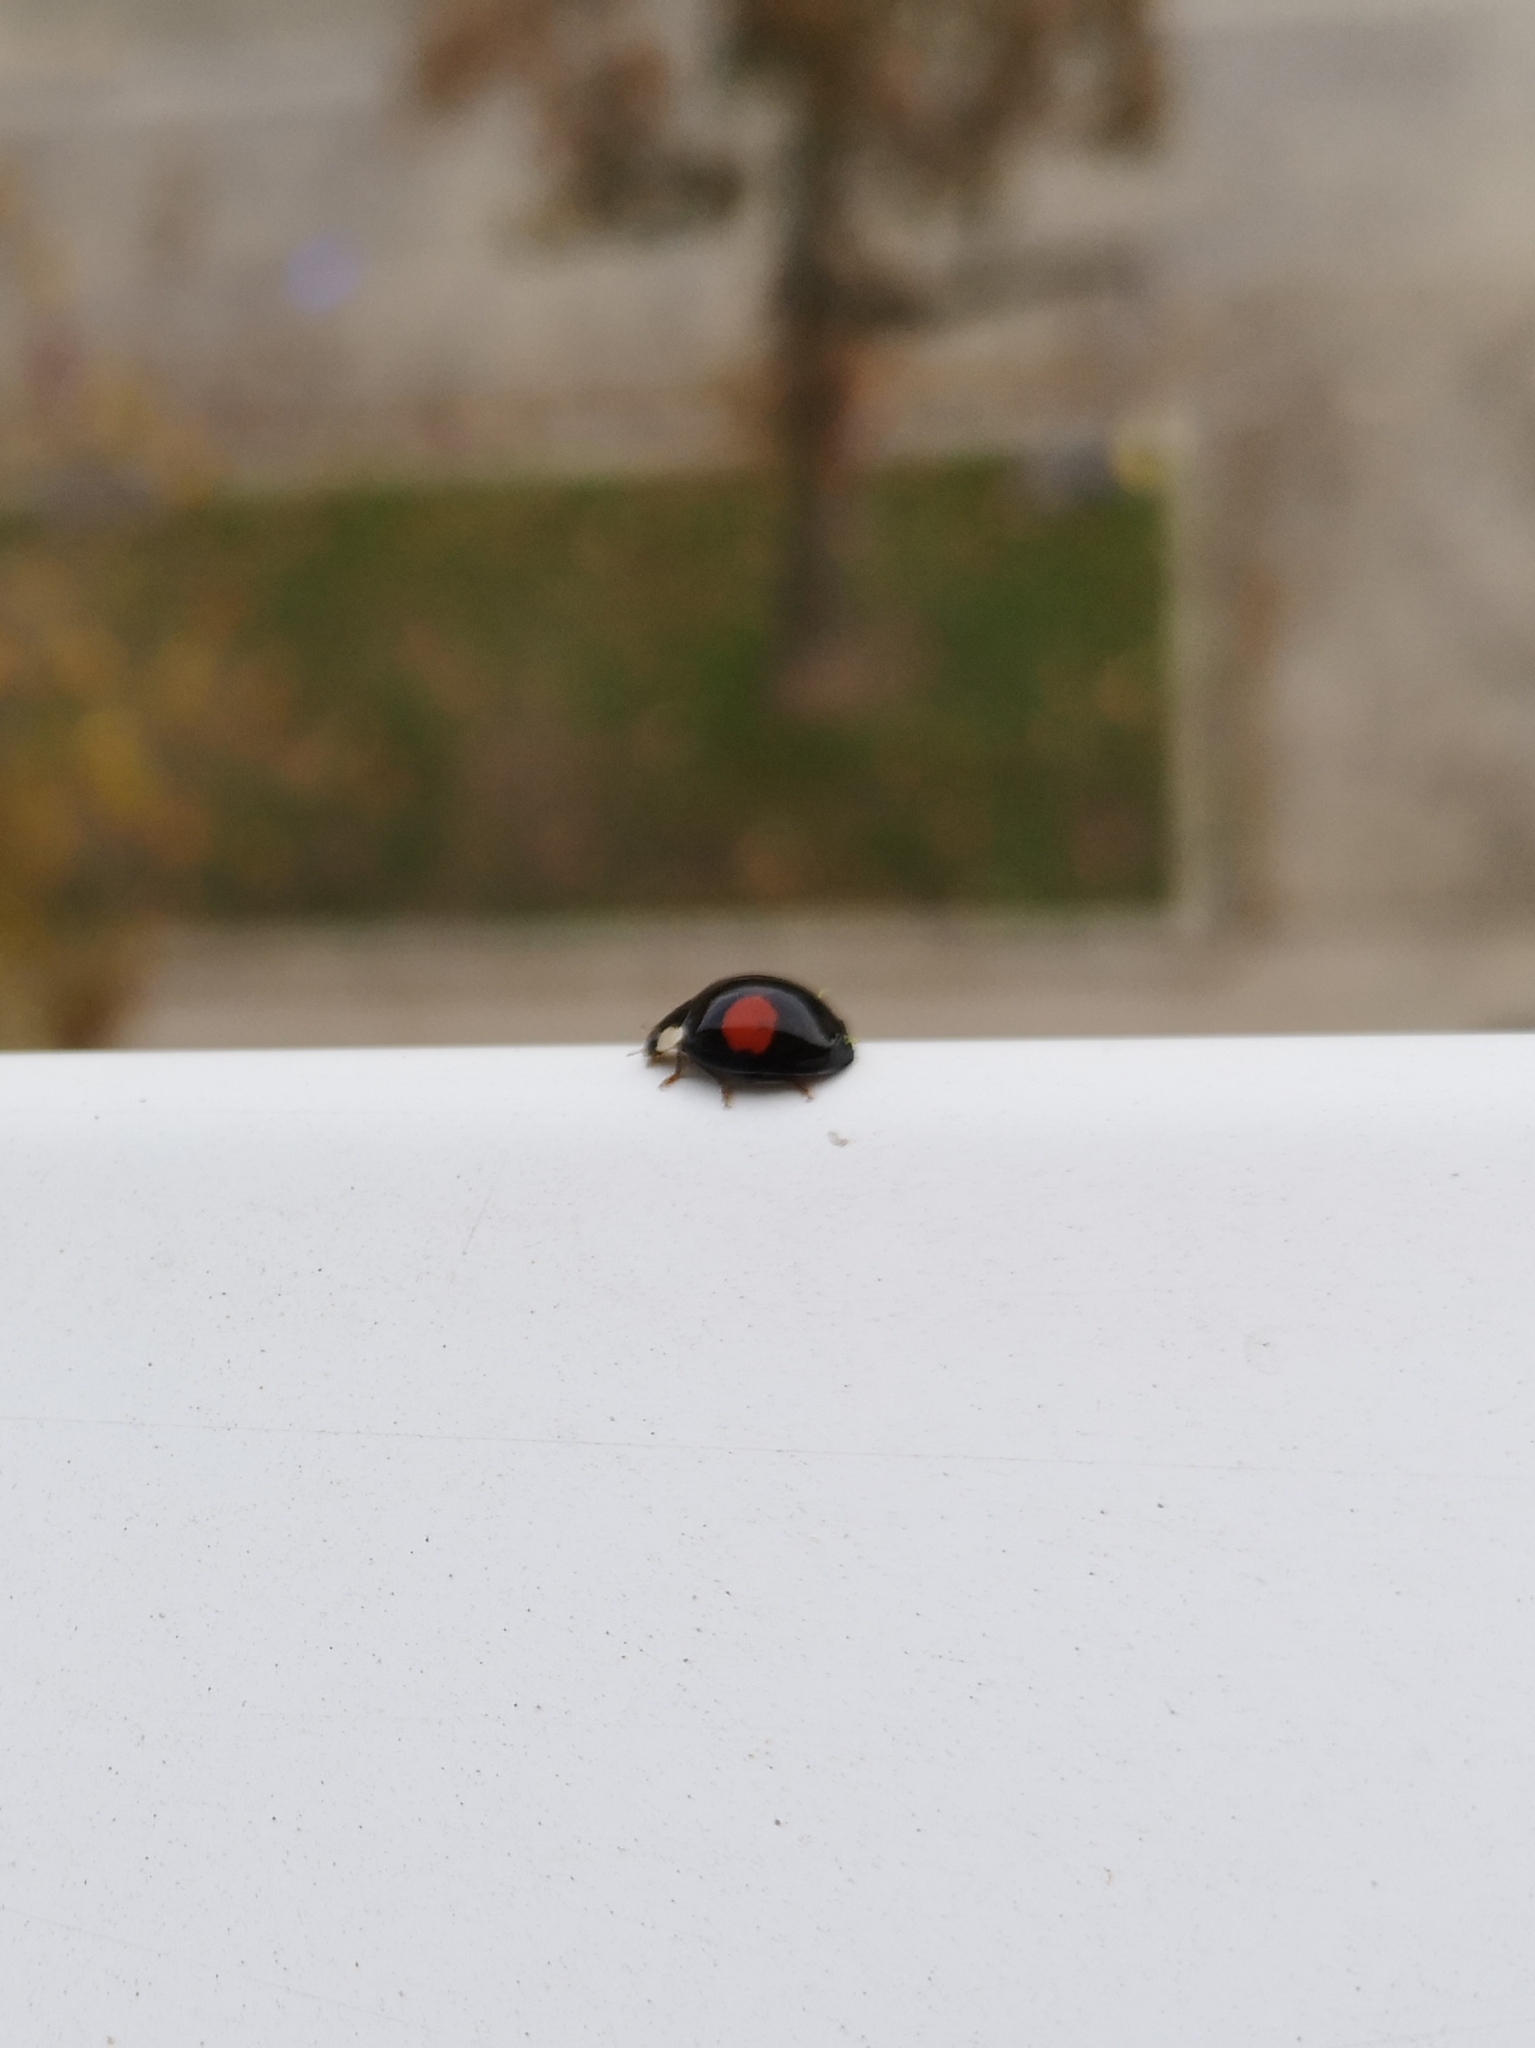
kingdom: Animalia
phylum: Arthropoda
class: Insecta
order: Coleoptera
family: Coccinellidae
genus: Harmonia
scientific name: Harmonia axyridis
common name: Harlequin ladybird
